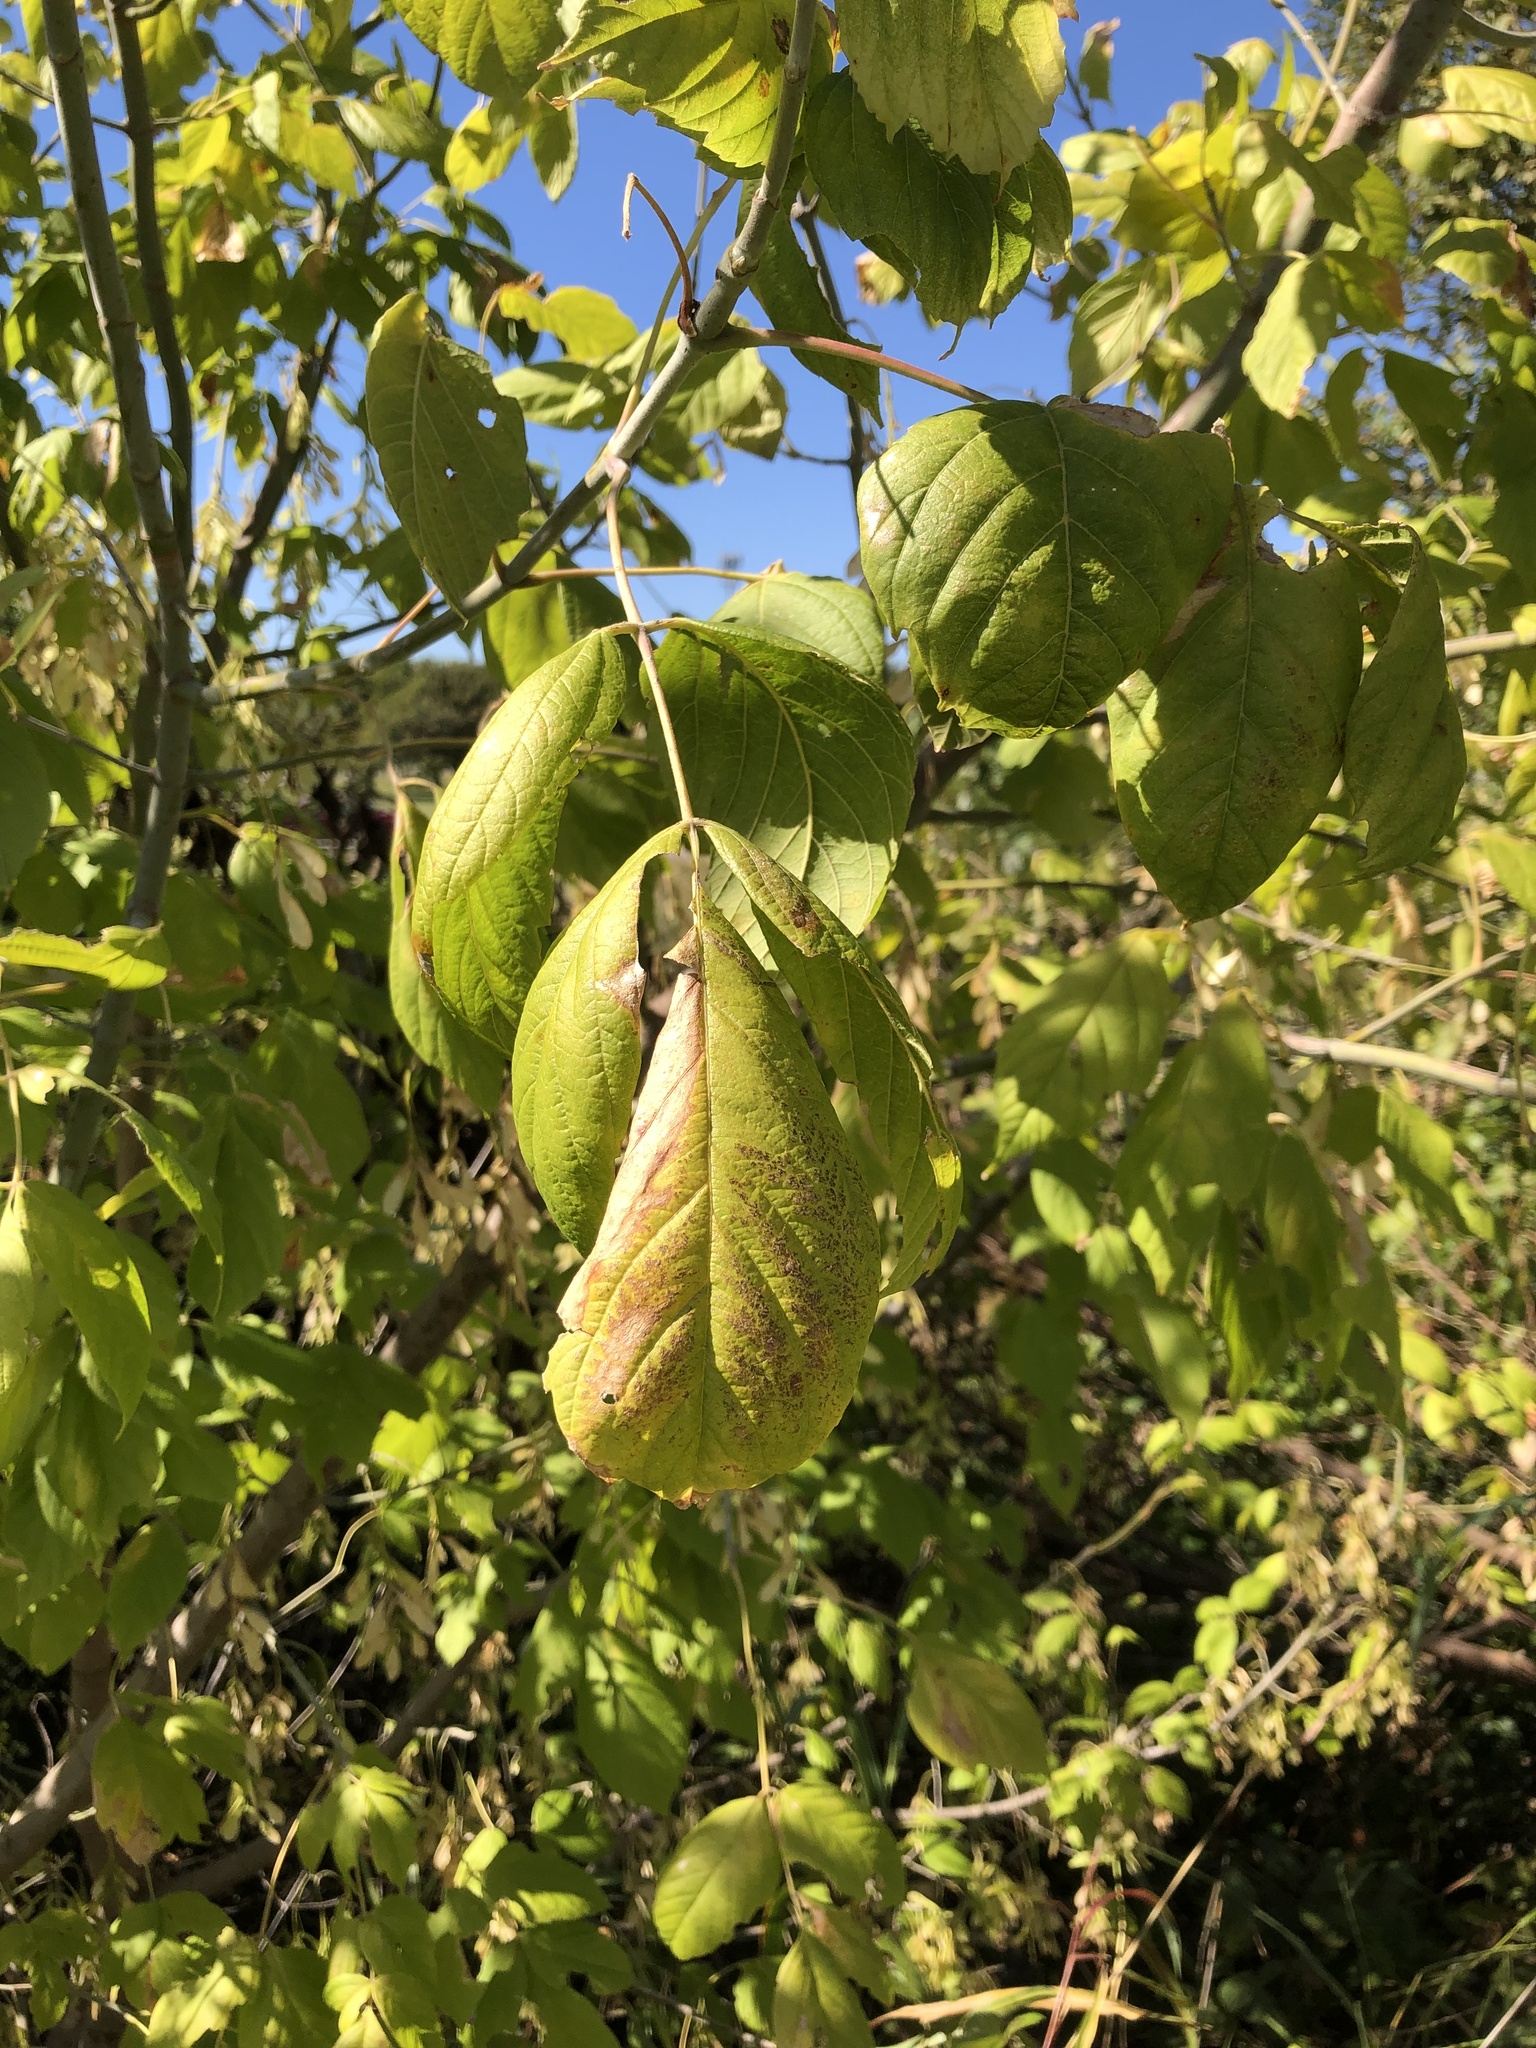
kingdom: Plantae
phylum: Tracheophyta
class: Magnoliopsida
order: Sapindales
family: Sapindaceae
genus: Acer
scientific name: Acer negundo
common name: Ashleaf maple
